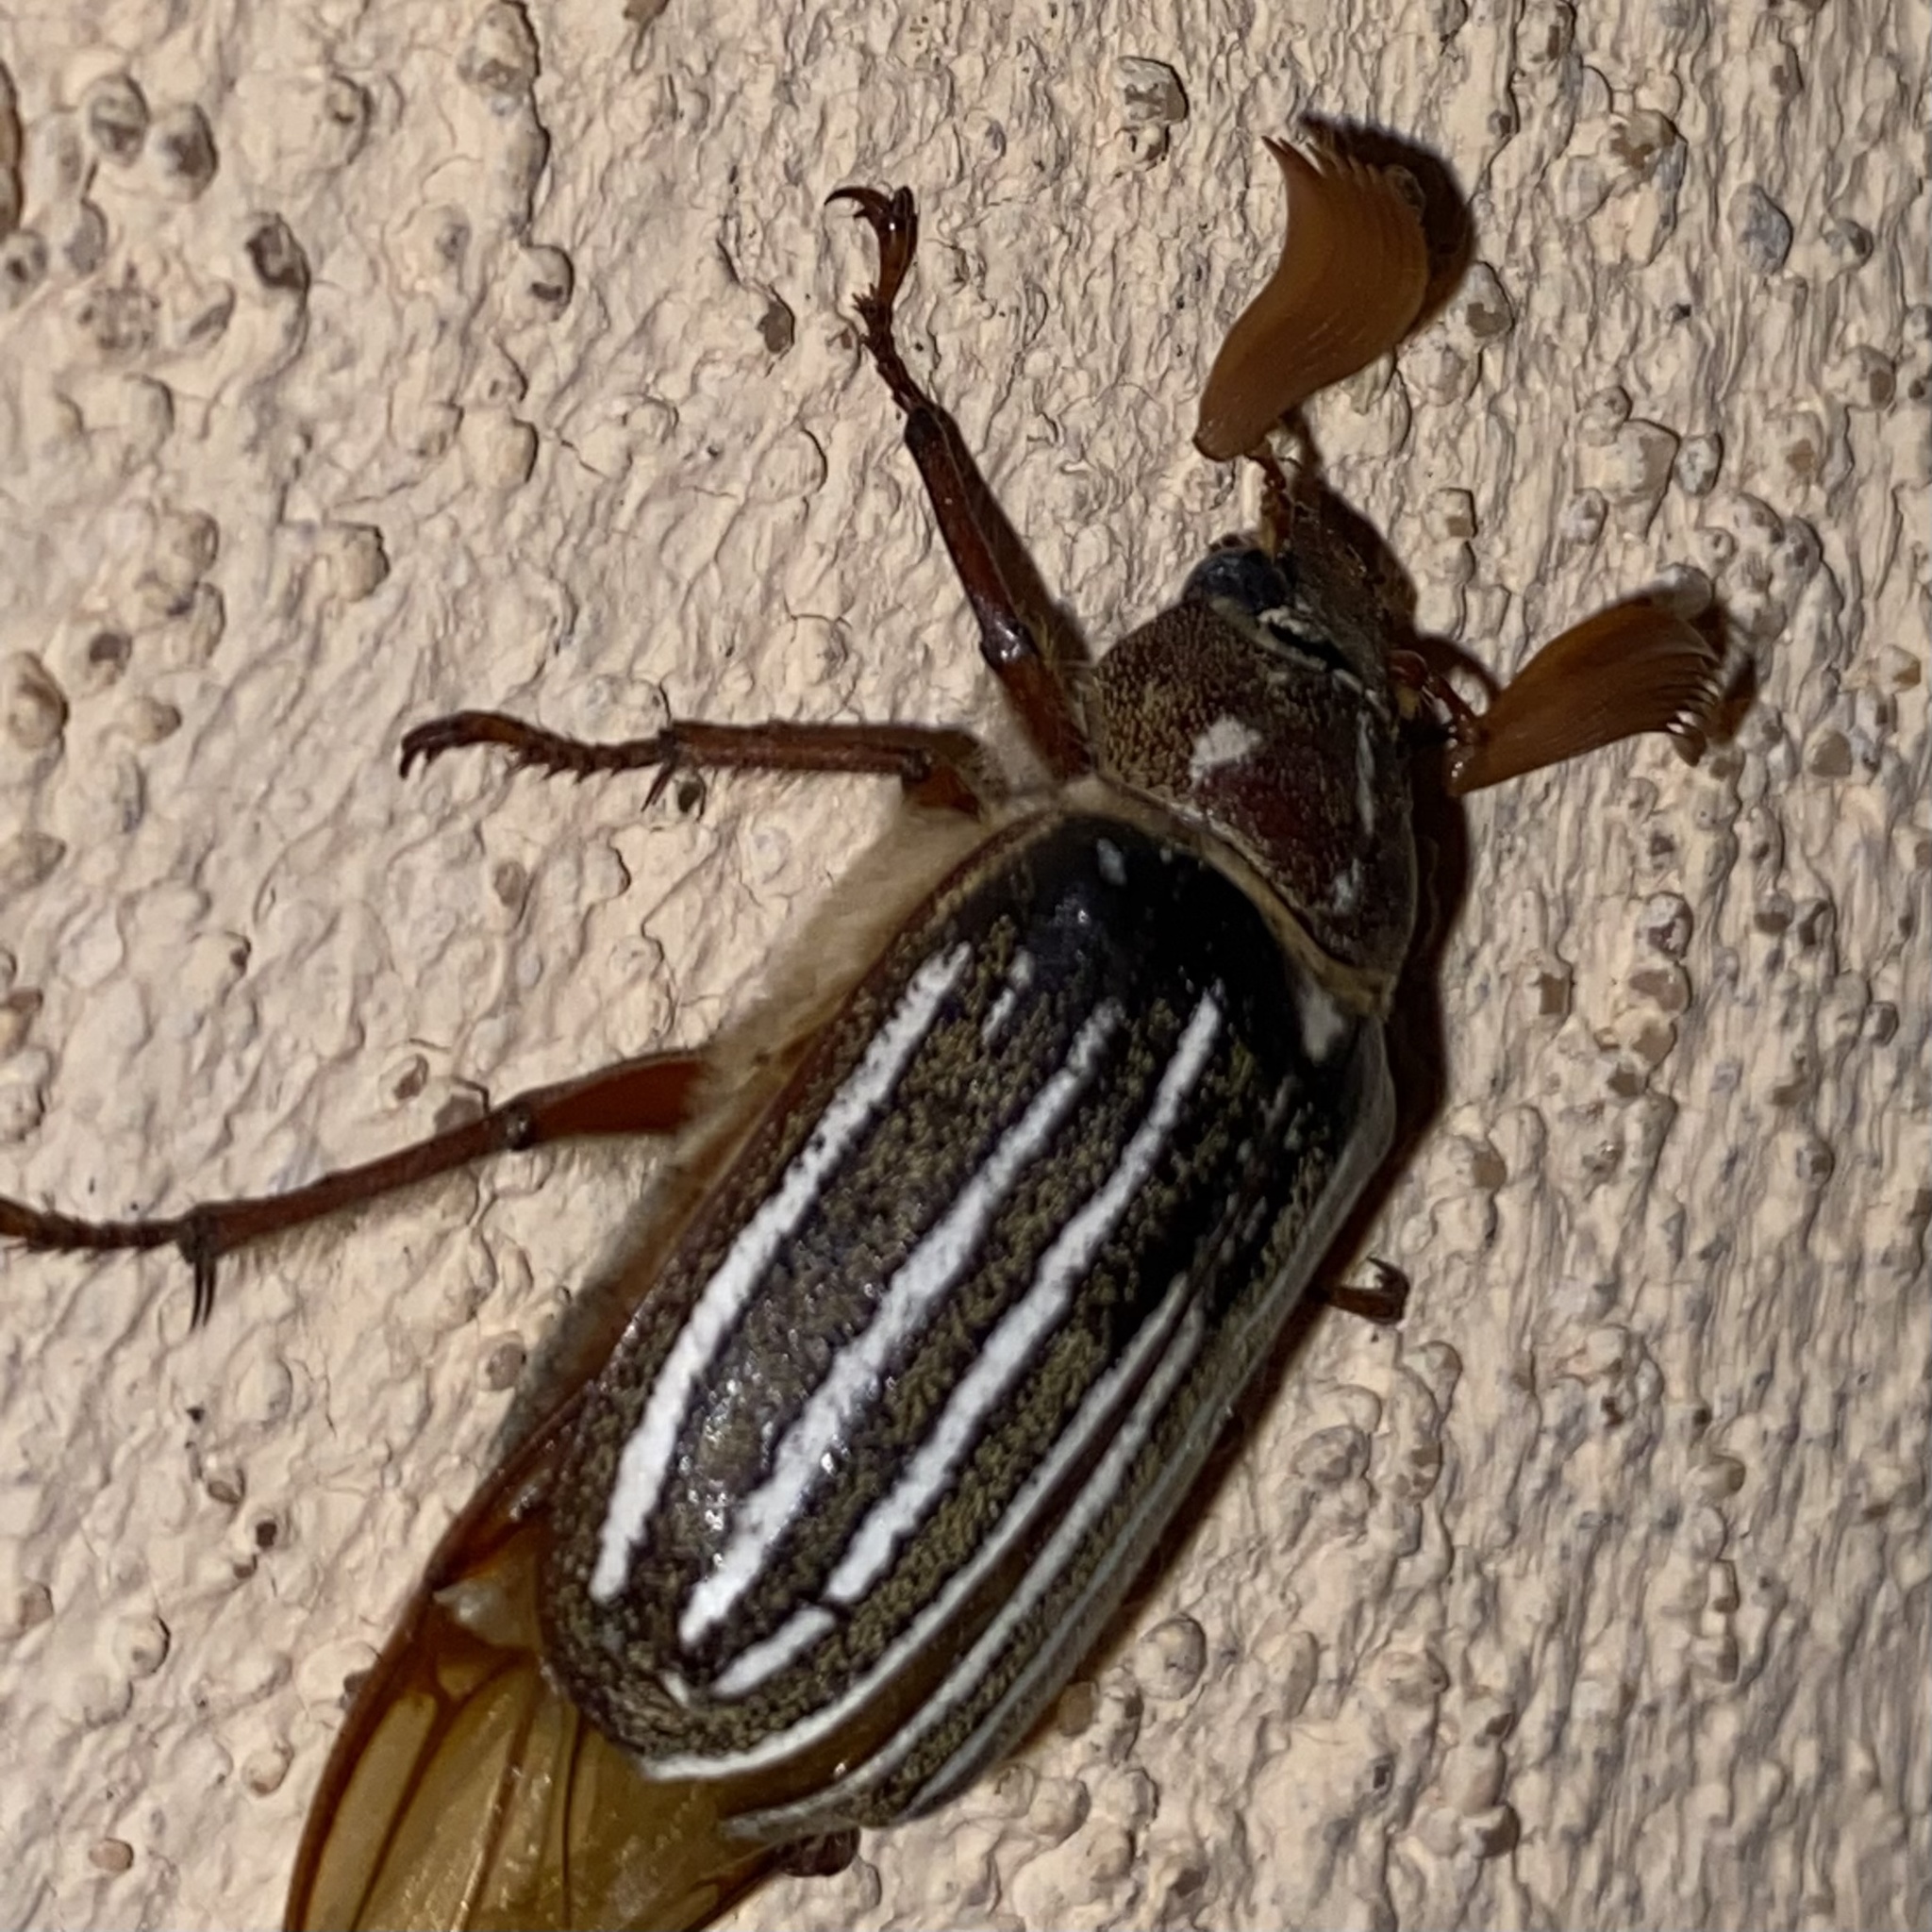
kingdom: Animalia
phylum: Arthropoda
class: Insecta
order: Coleoptera
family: Scarabaeidae
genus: Polyphylla
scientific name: Polyphylla decemlineata
